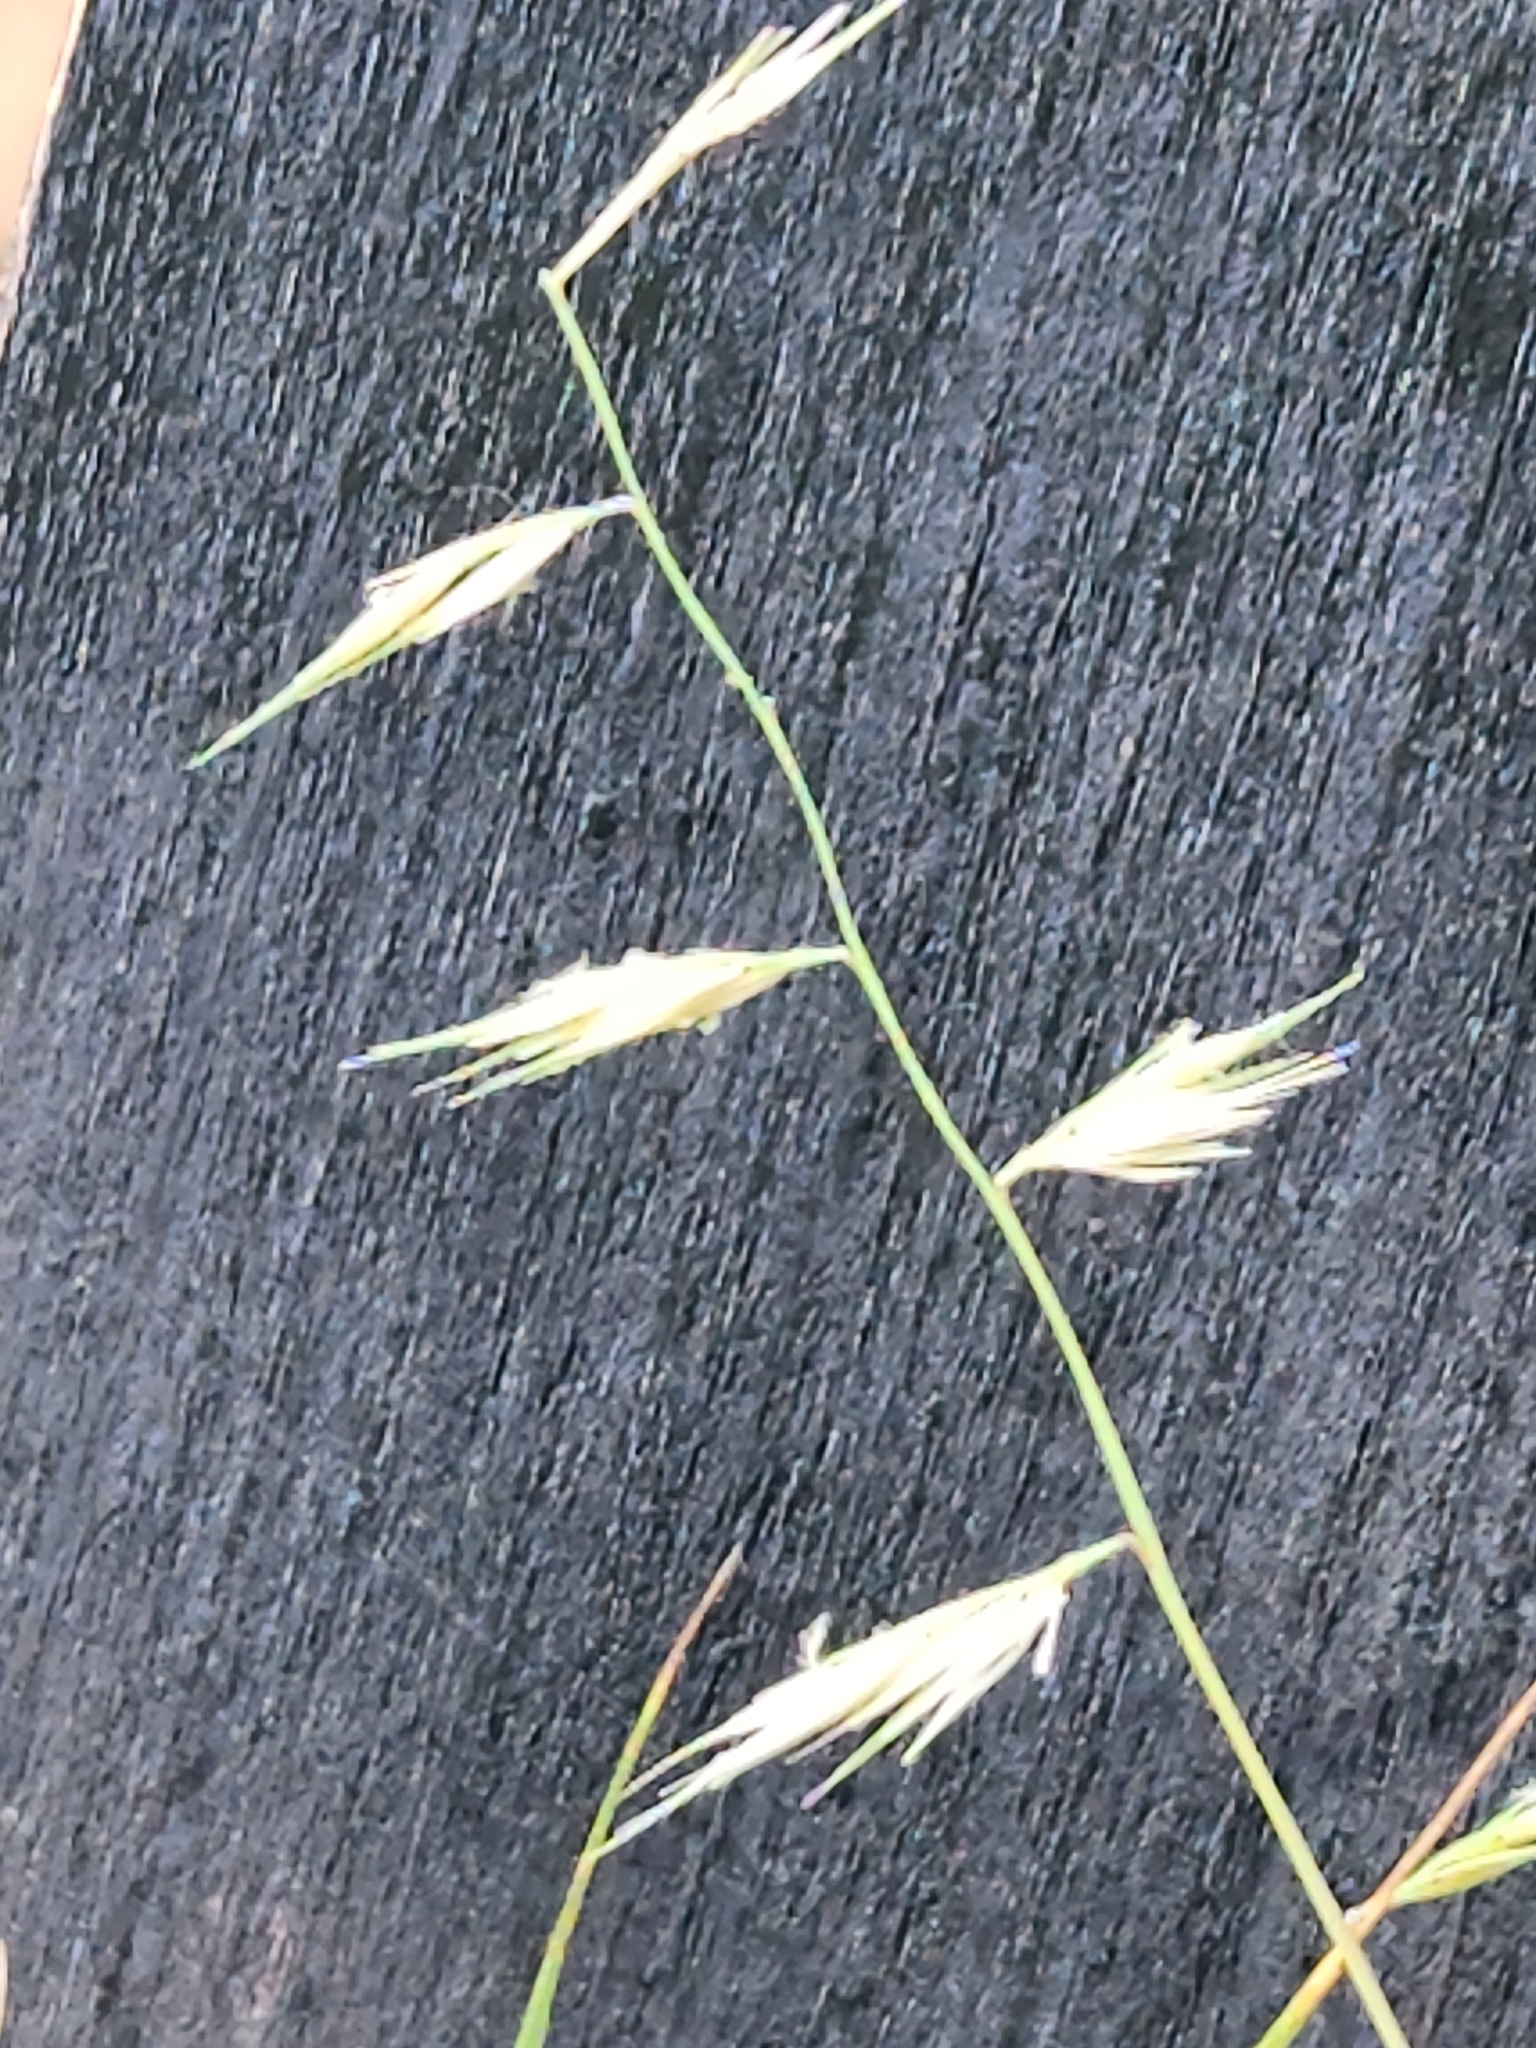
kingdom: Plantae
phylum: Tracheophyta
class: Liliopsida
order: Poales
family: Poaceae
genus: Bouteloua
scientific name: Bouteloua repens
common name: Slender grama
